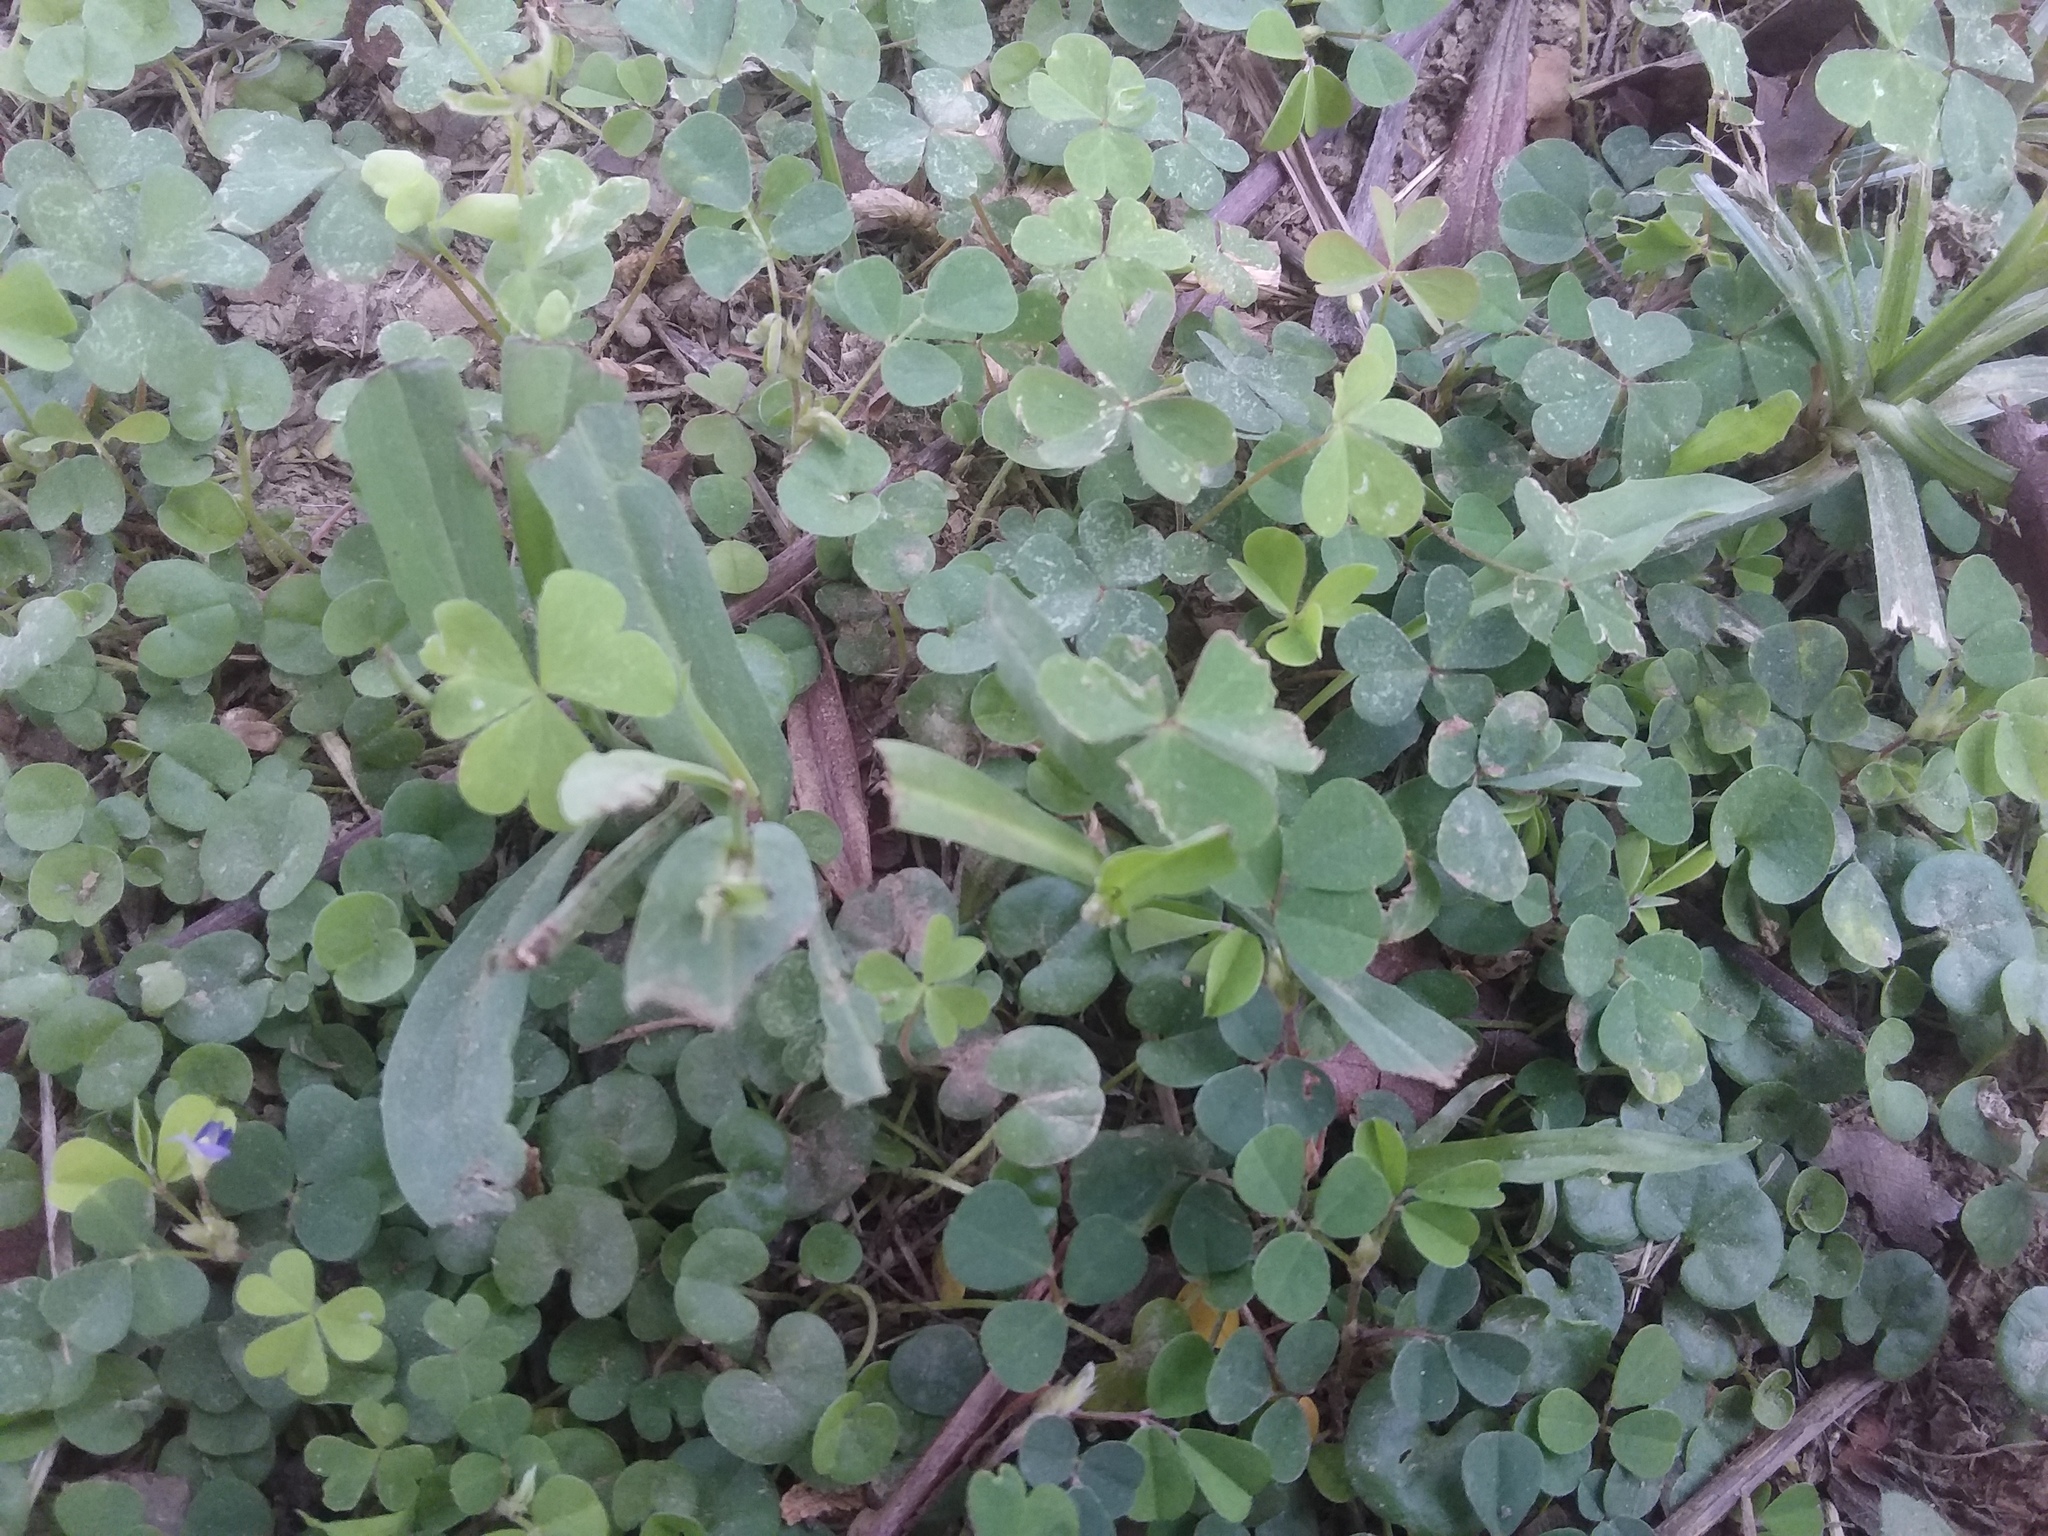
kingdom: Plantae
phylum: Tracheophyta
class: Magnoliopsida
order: Oxalidales
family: Oxalidaceae
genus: Oxalis
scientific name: Oxalis corniculata
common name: Procumbent yellow-sorrel
